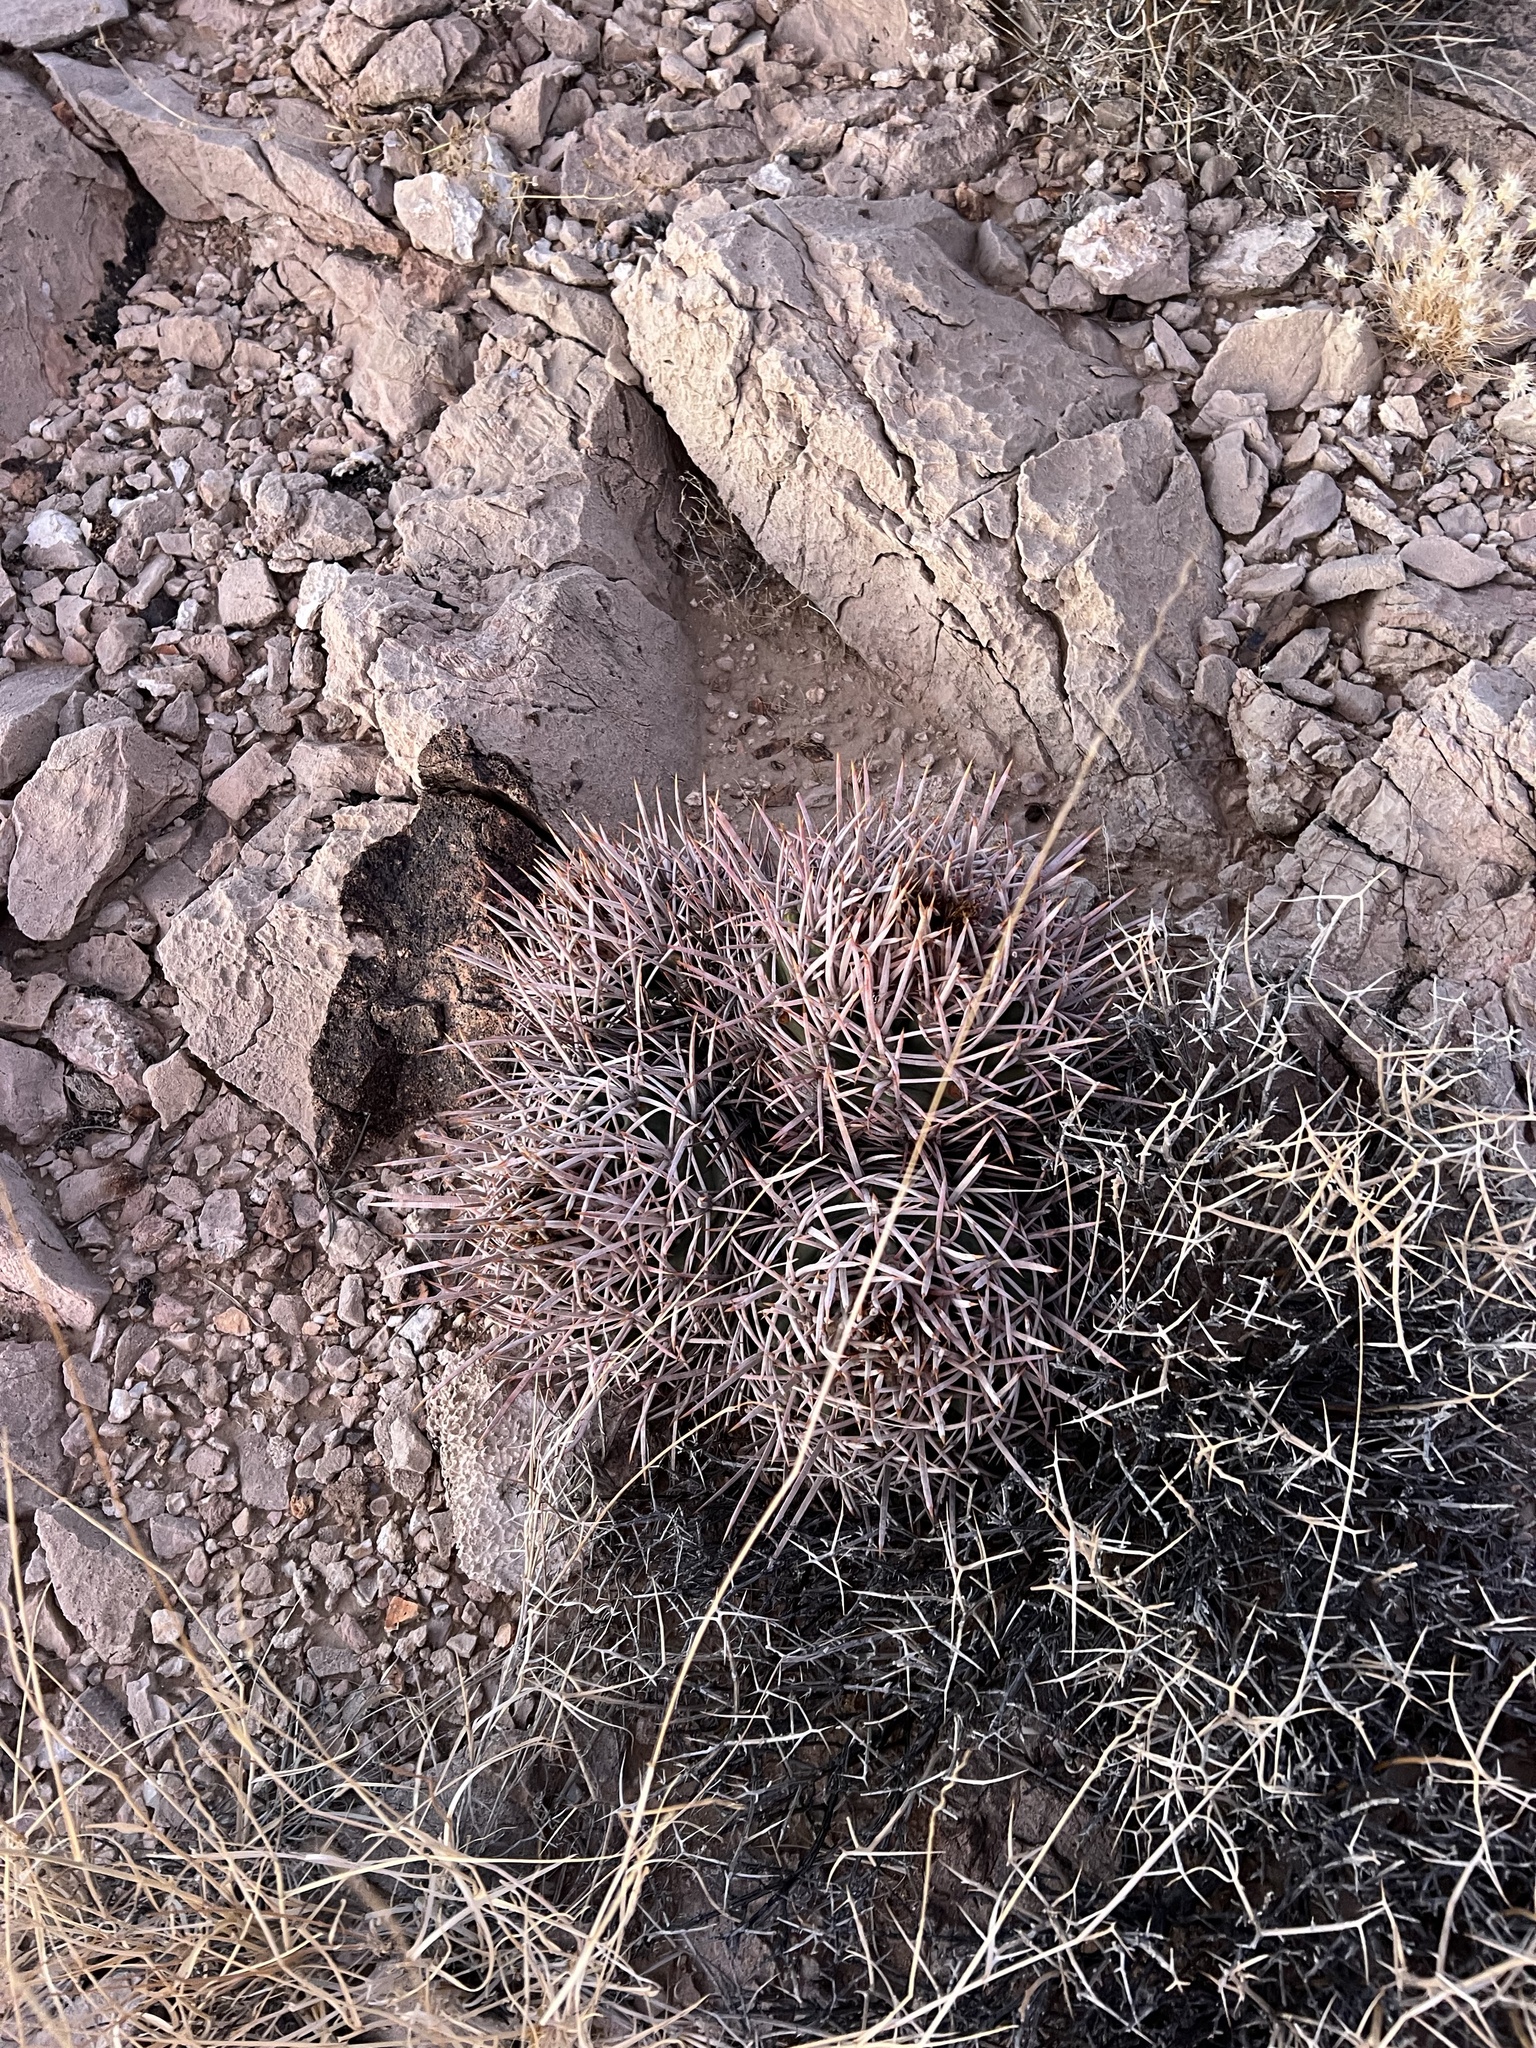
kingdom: Plantae
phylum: Tracheophyta
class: Magnoliopsida
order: Caryophyllales
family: Cactaceae
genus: Echinocactus
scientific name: Echinocactus polycephalus
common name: Cottontop cactus
